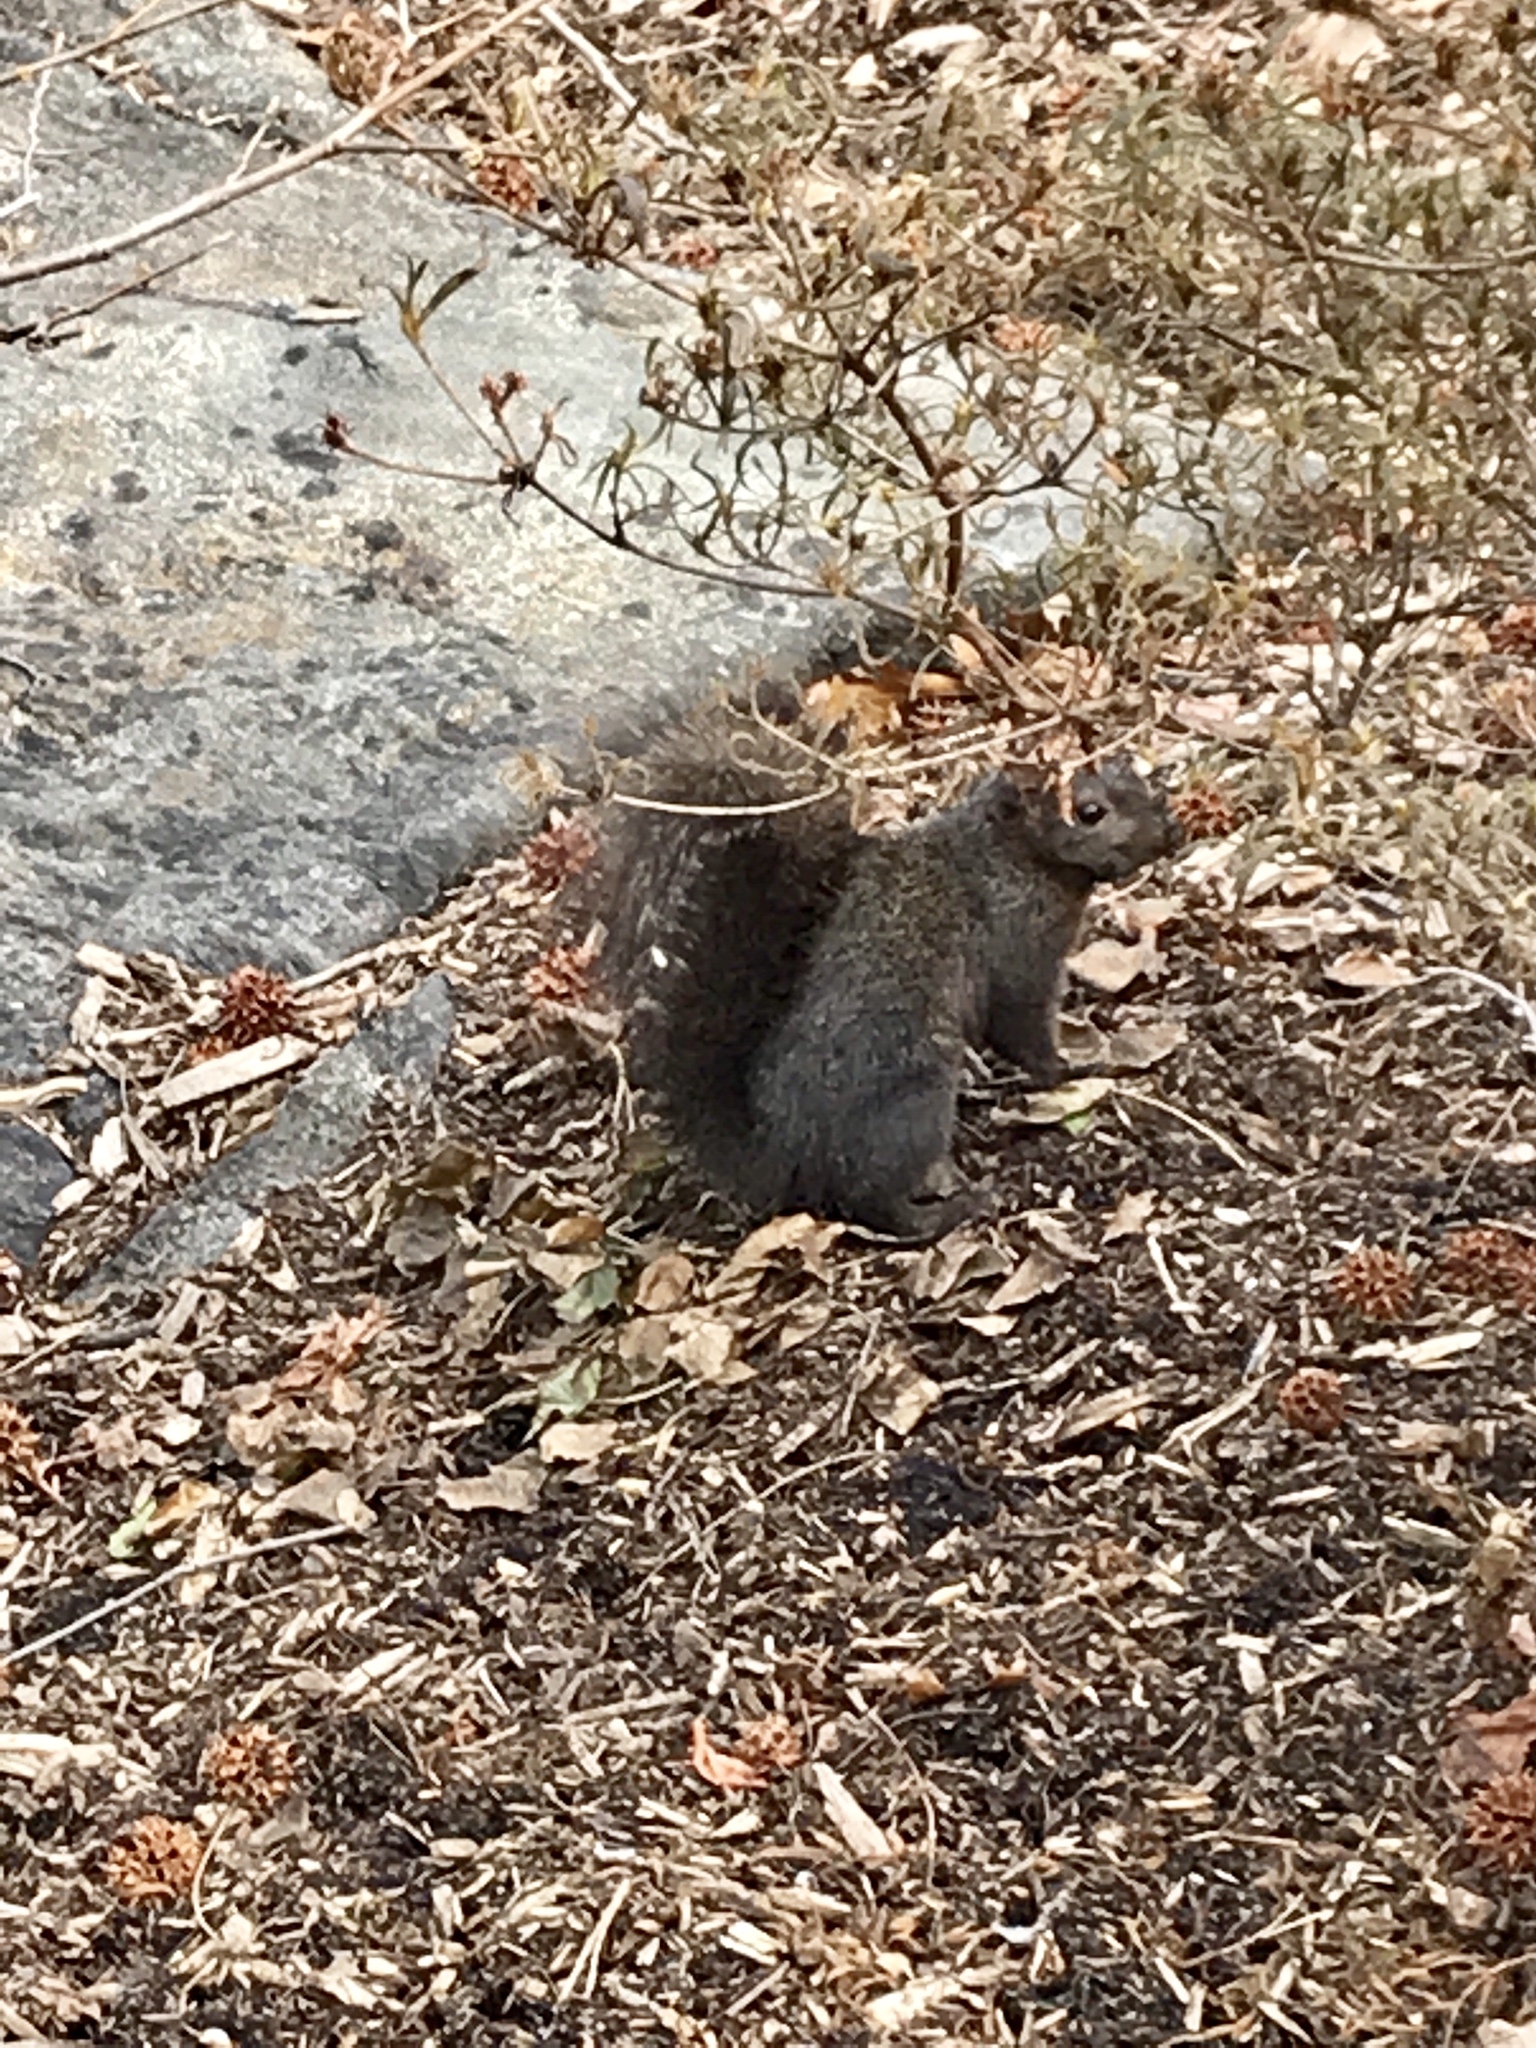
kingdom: Animalia
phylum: Chordata
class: Mammalia
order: Rodentia
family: Sciuridae
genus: Sciurus
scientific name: Sciurus carolinensis
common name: Eastern gray squirrel
